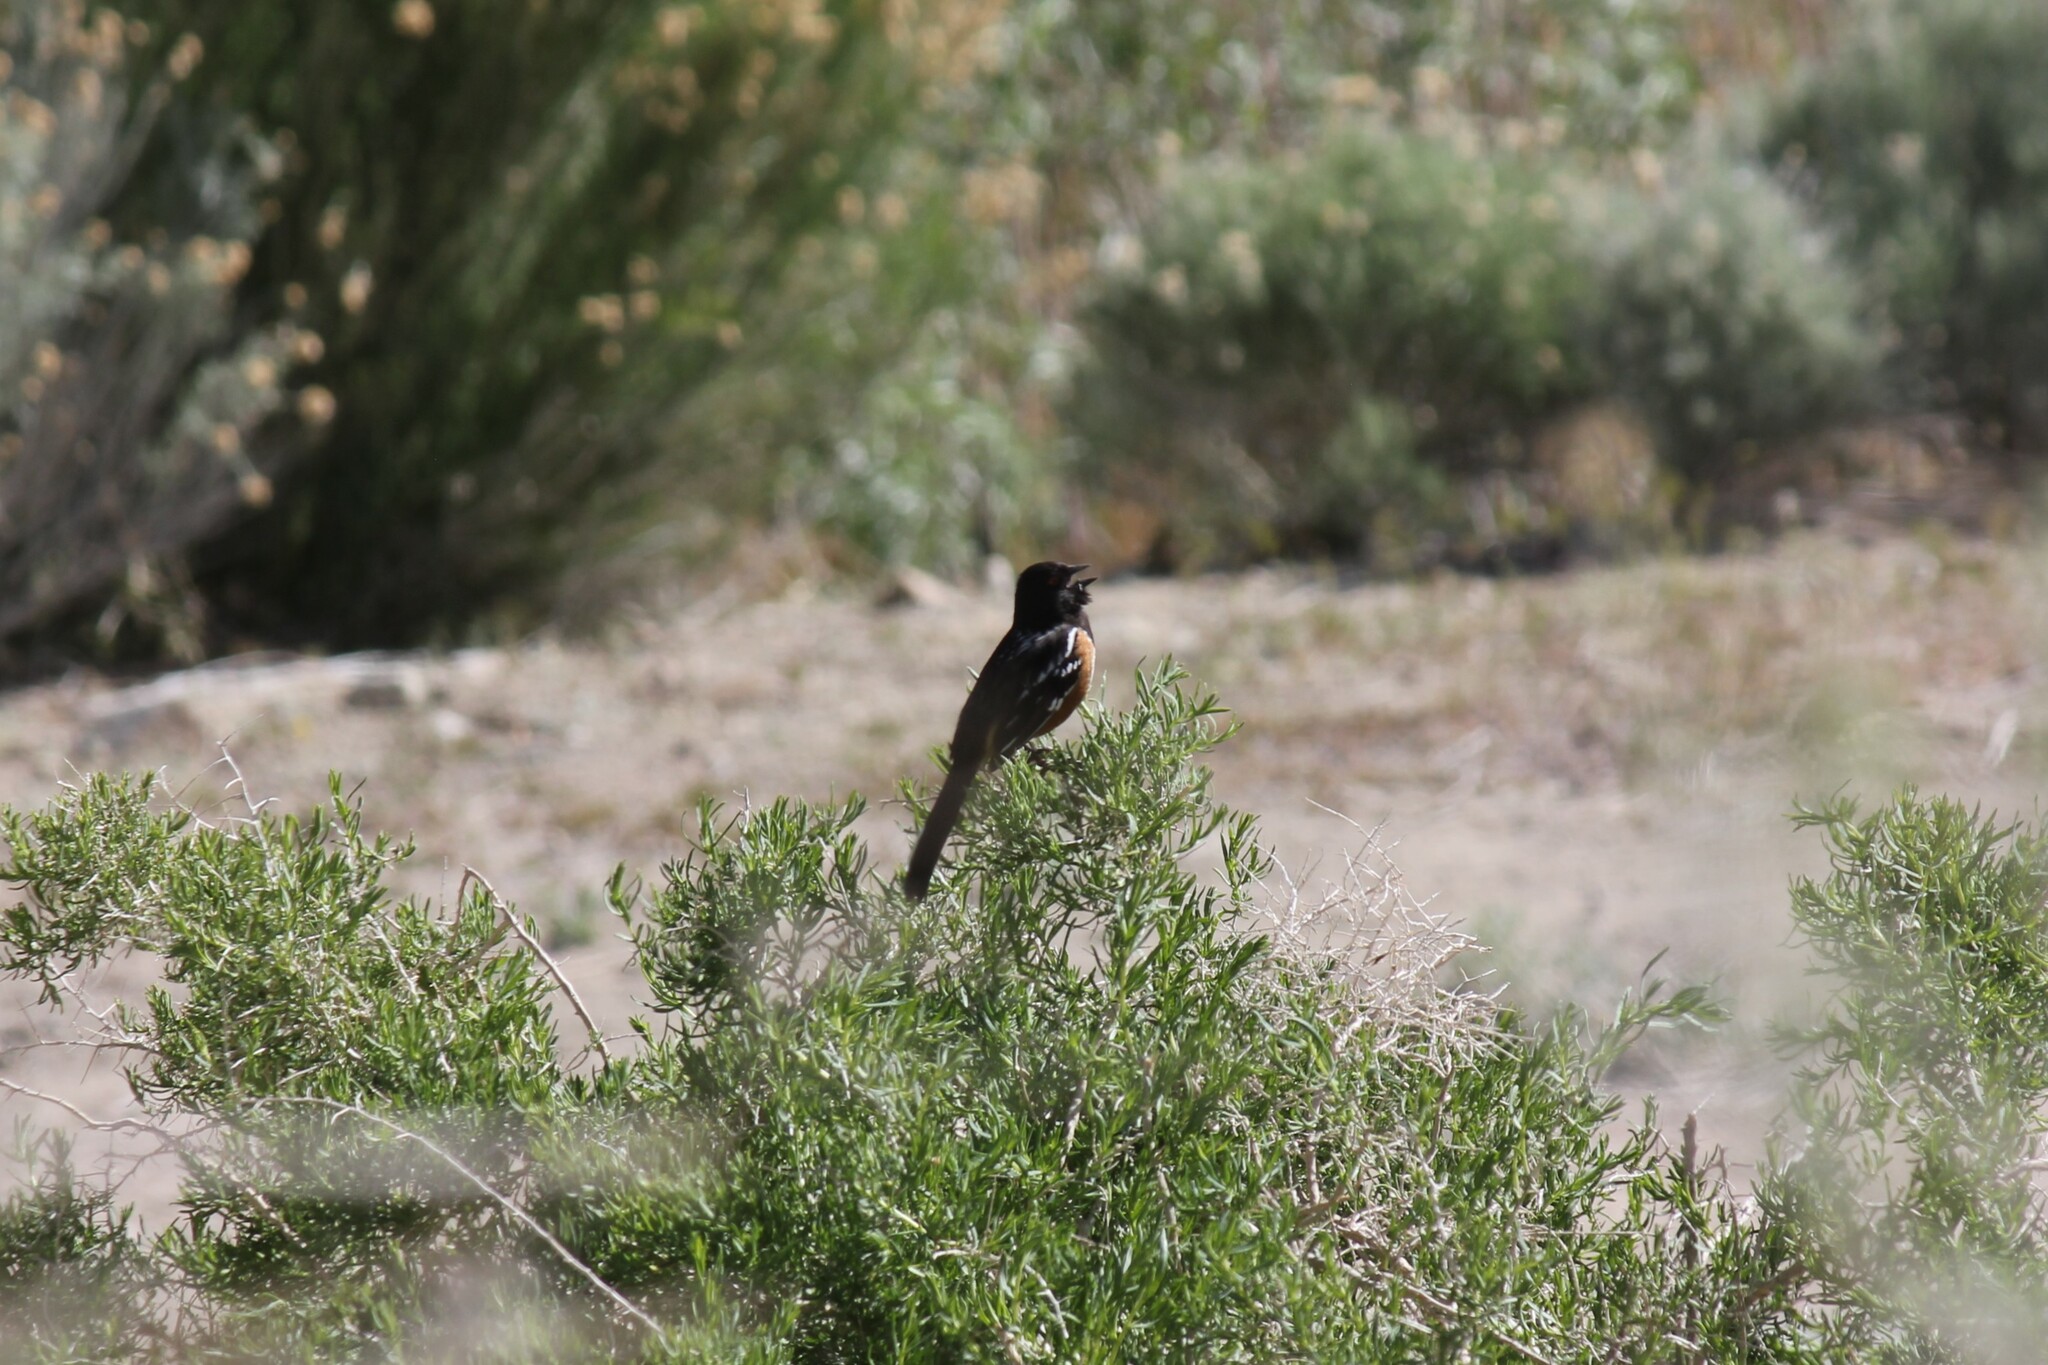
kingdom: Animalia
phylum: Chordata
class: Aves
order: Passeriformes
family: Passerellidae
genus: Pipilo
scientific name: Pipilo maculatus
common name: Spotted towhee
